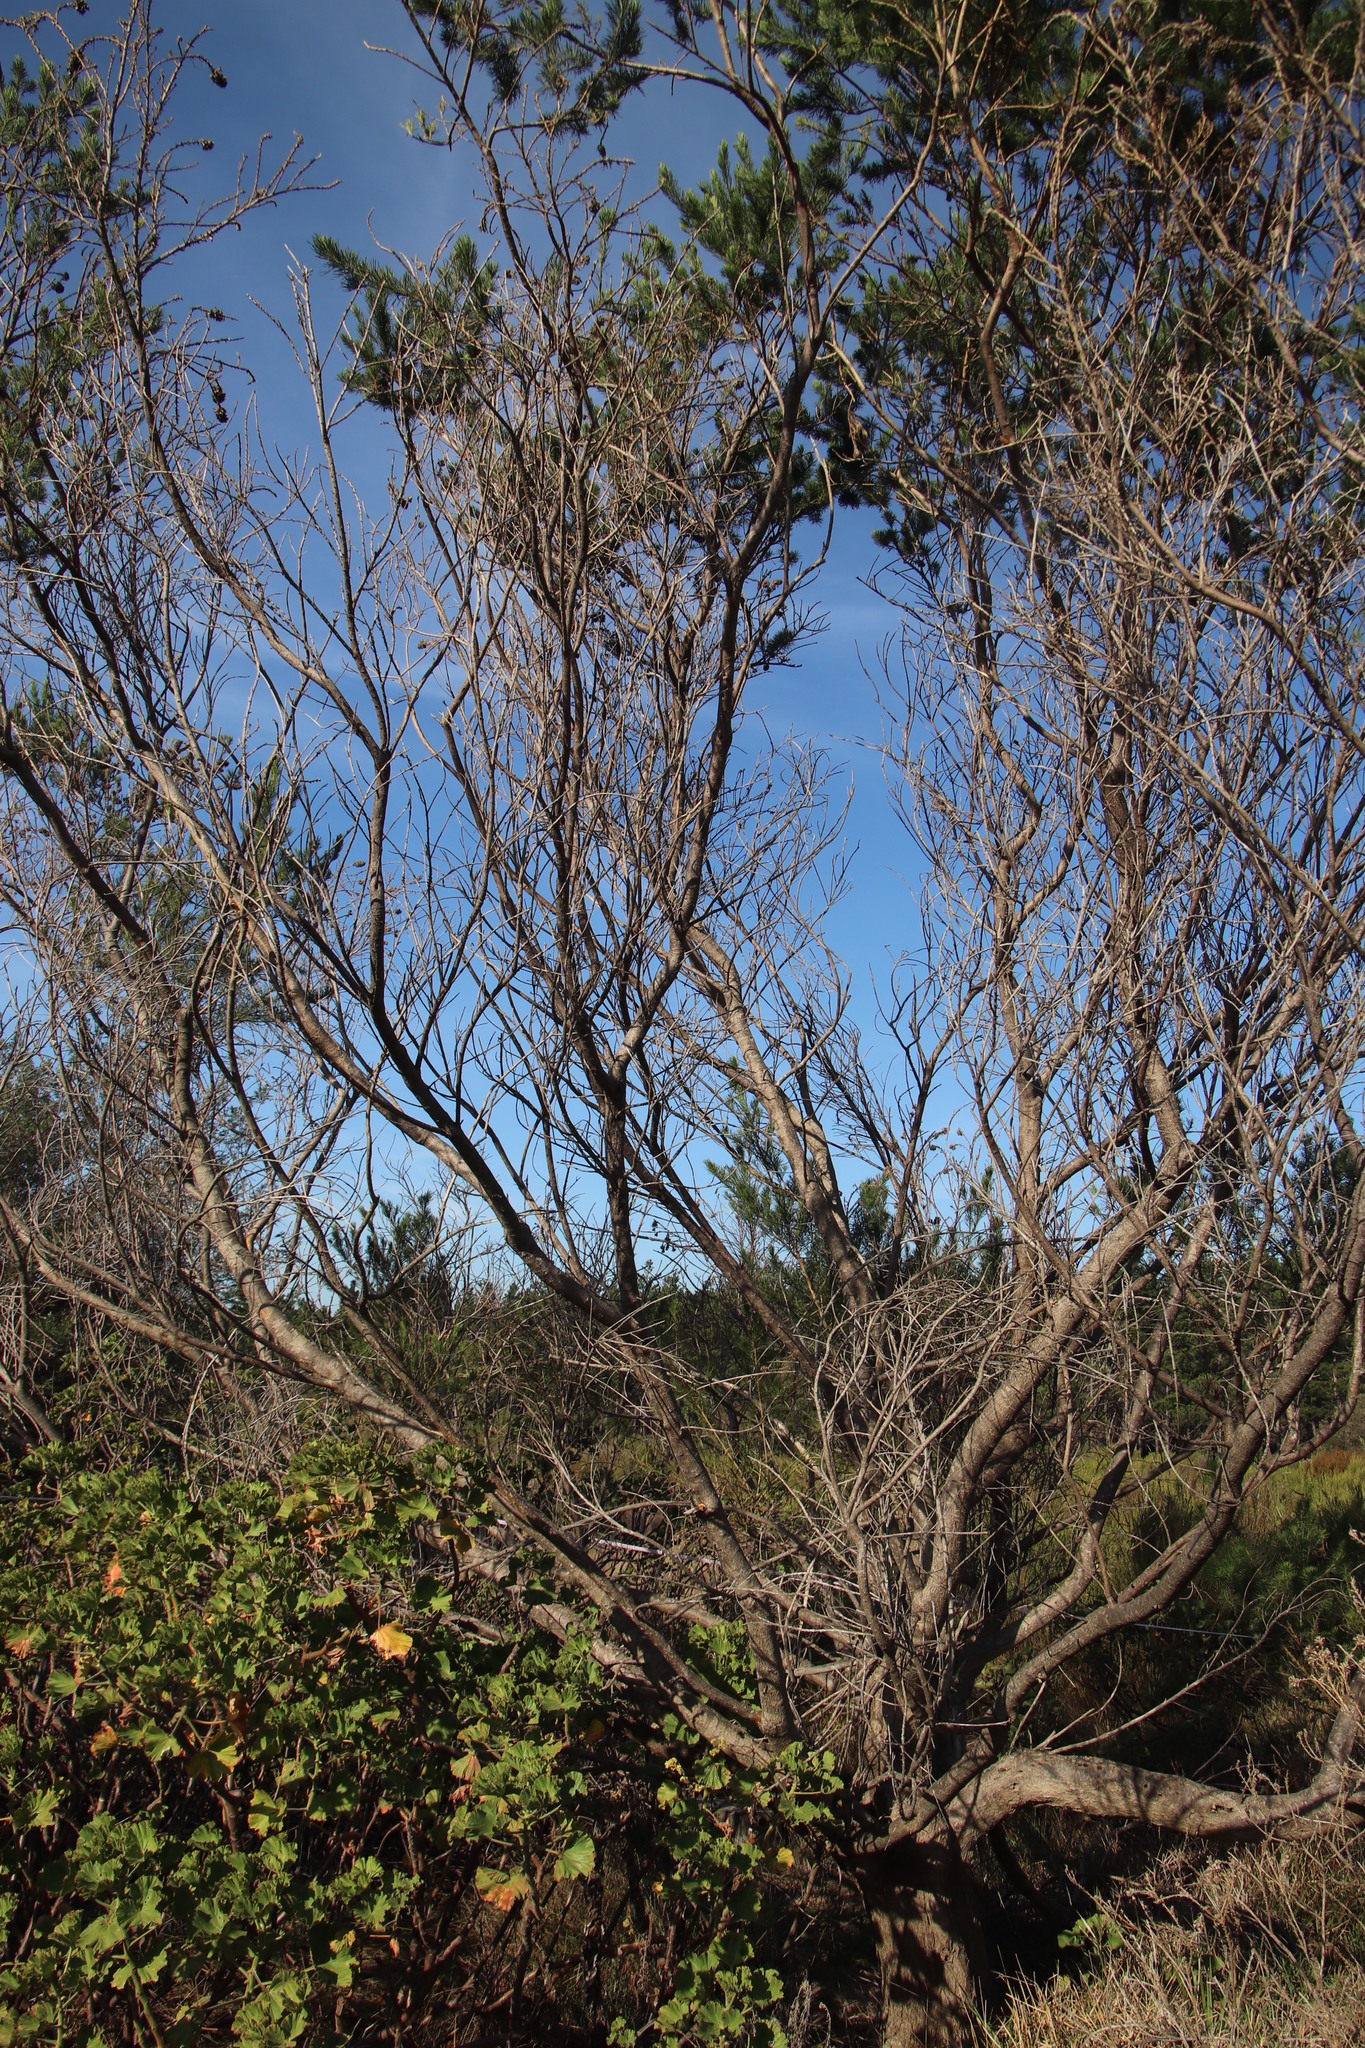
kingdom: Plantae
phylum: Tracheophyta
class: Magnoliopsida
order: Fabales
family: Fabaceae
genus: Psoralea
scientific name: Psoralea pinnata
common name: African scurfpea
